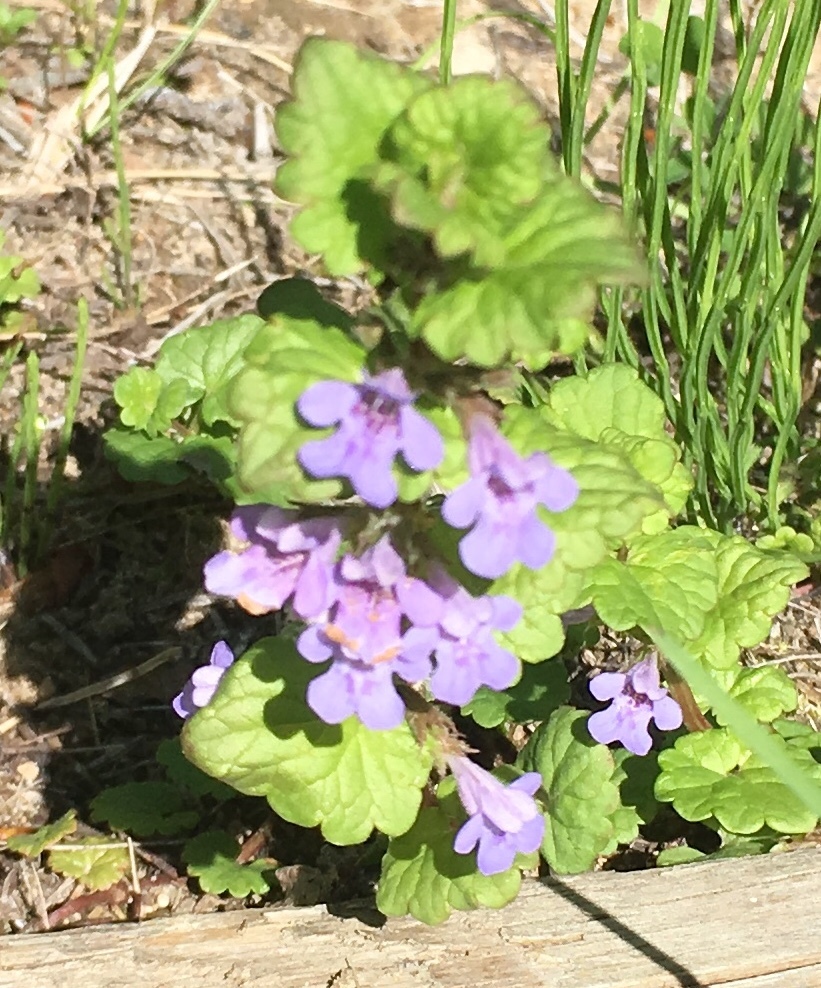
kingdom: Plantae
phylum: Tracheophyta
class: Magnoliopsida
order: Lamiales
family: Lamiaceae
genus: Glechoma
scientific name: Glechoma hederacea
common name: Ground ivy
